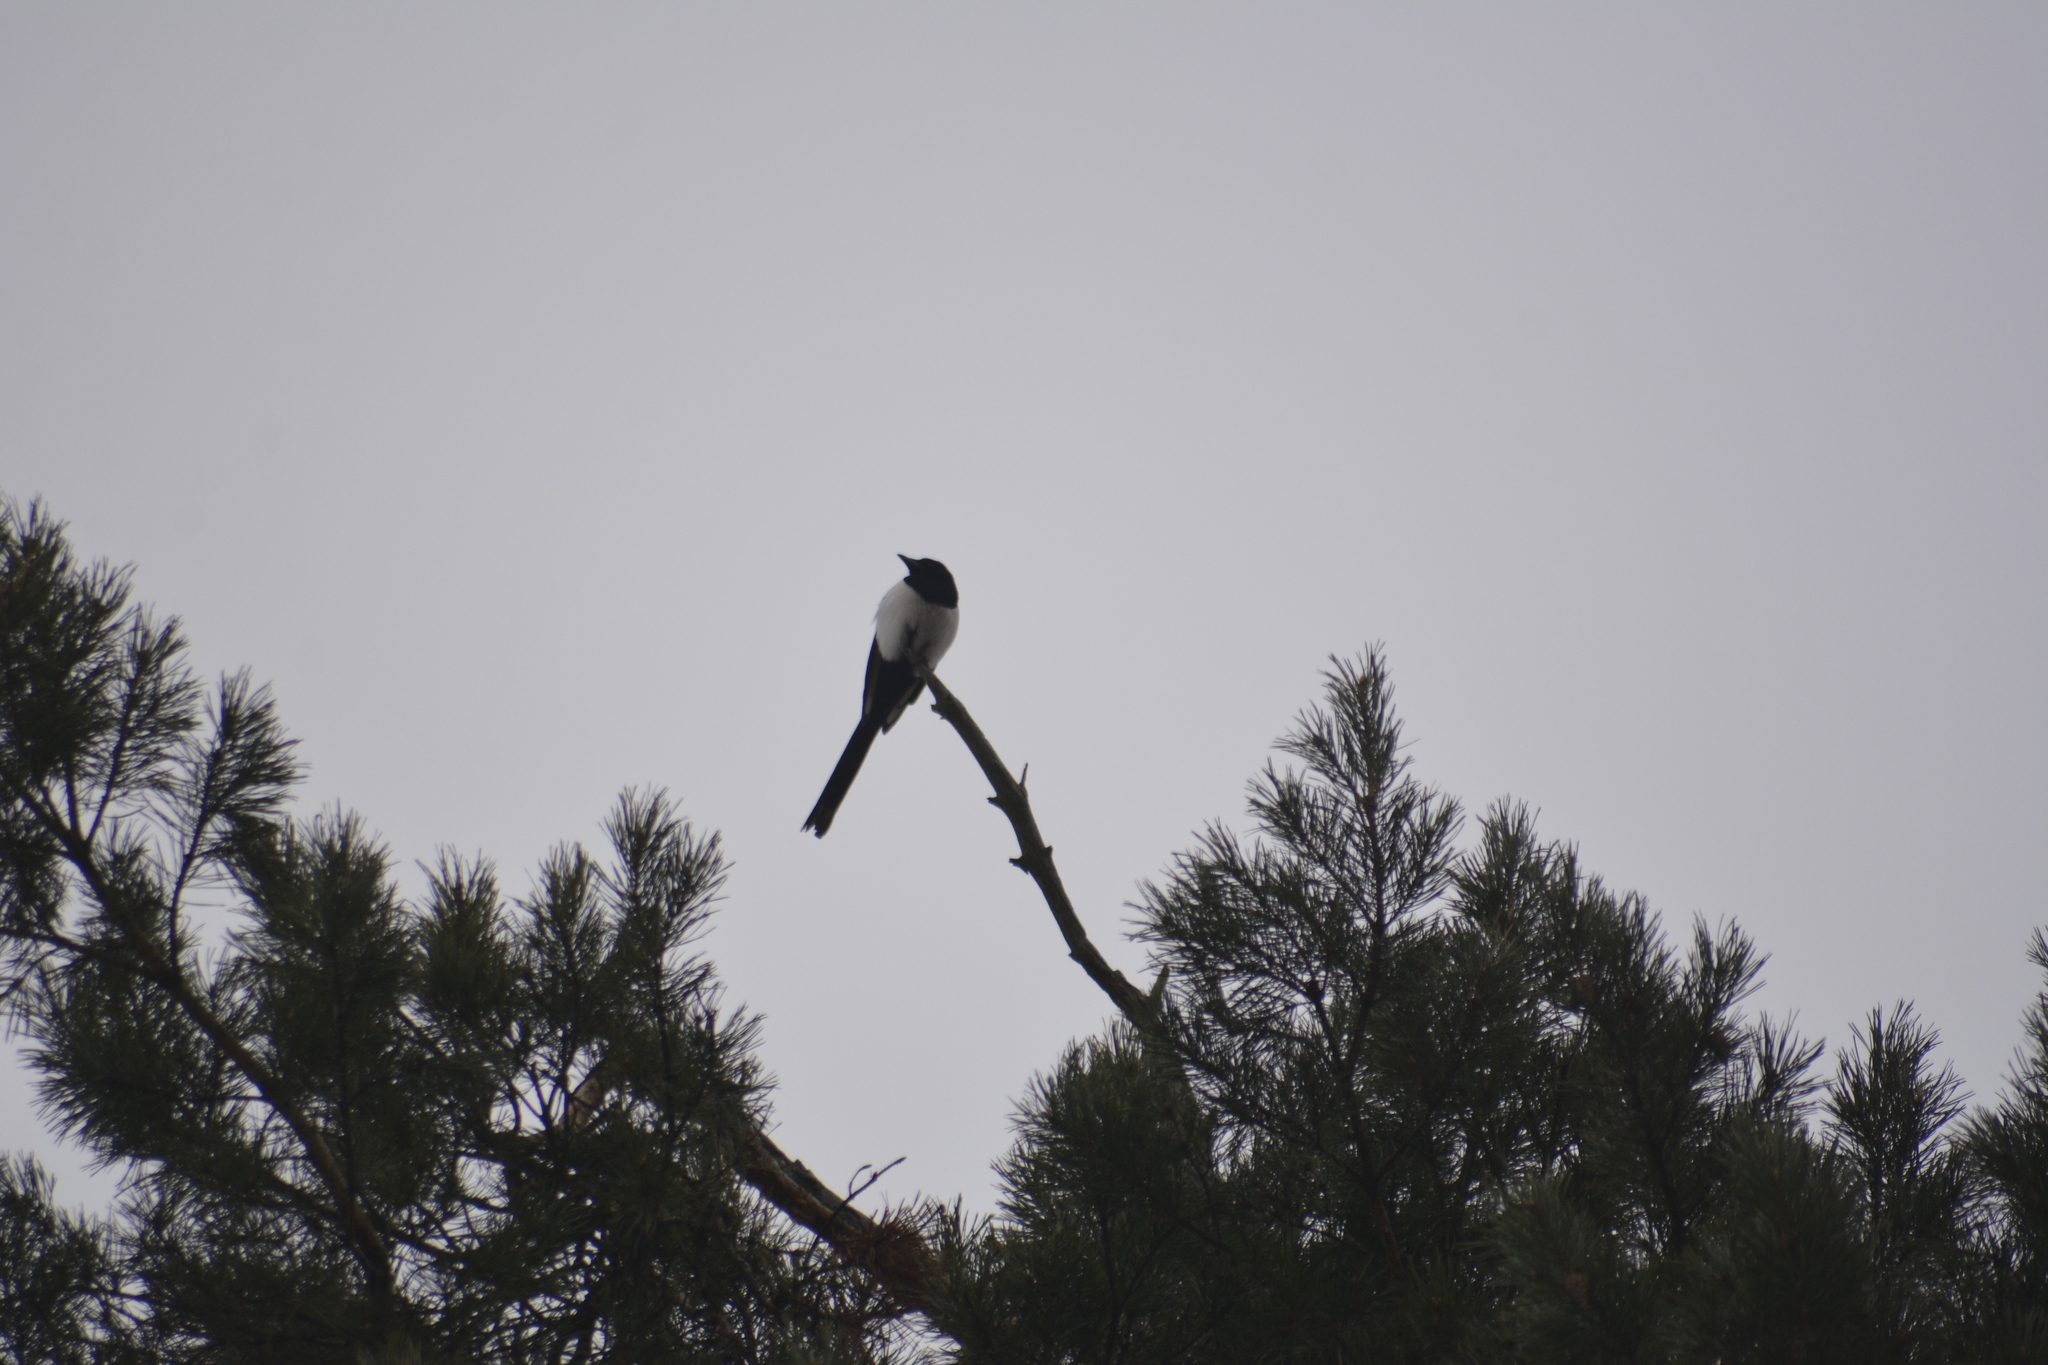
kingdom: Animalia
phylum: Chordata
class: Aves
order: Passeriformes
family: Corvidae
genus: Pica
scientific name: Pica pica
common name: Eurasian magpie
